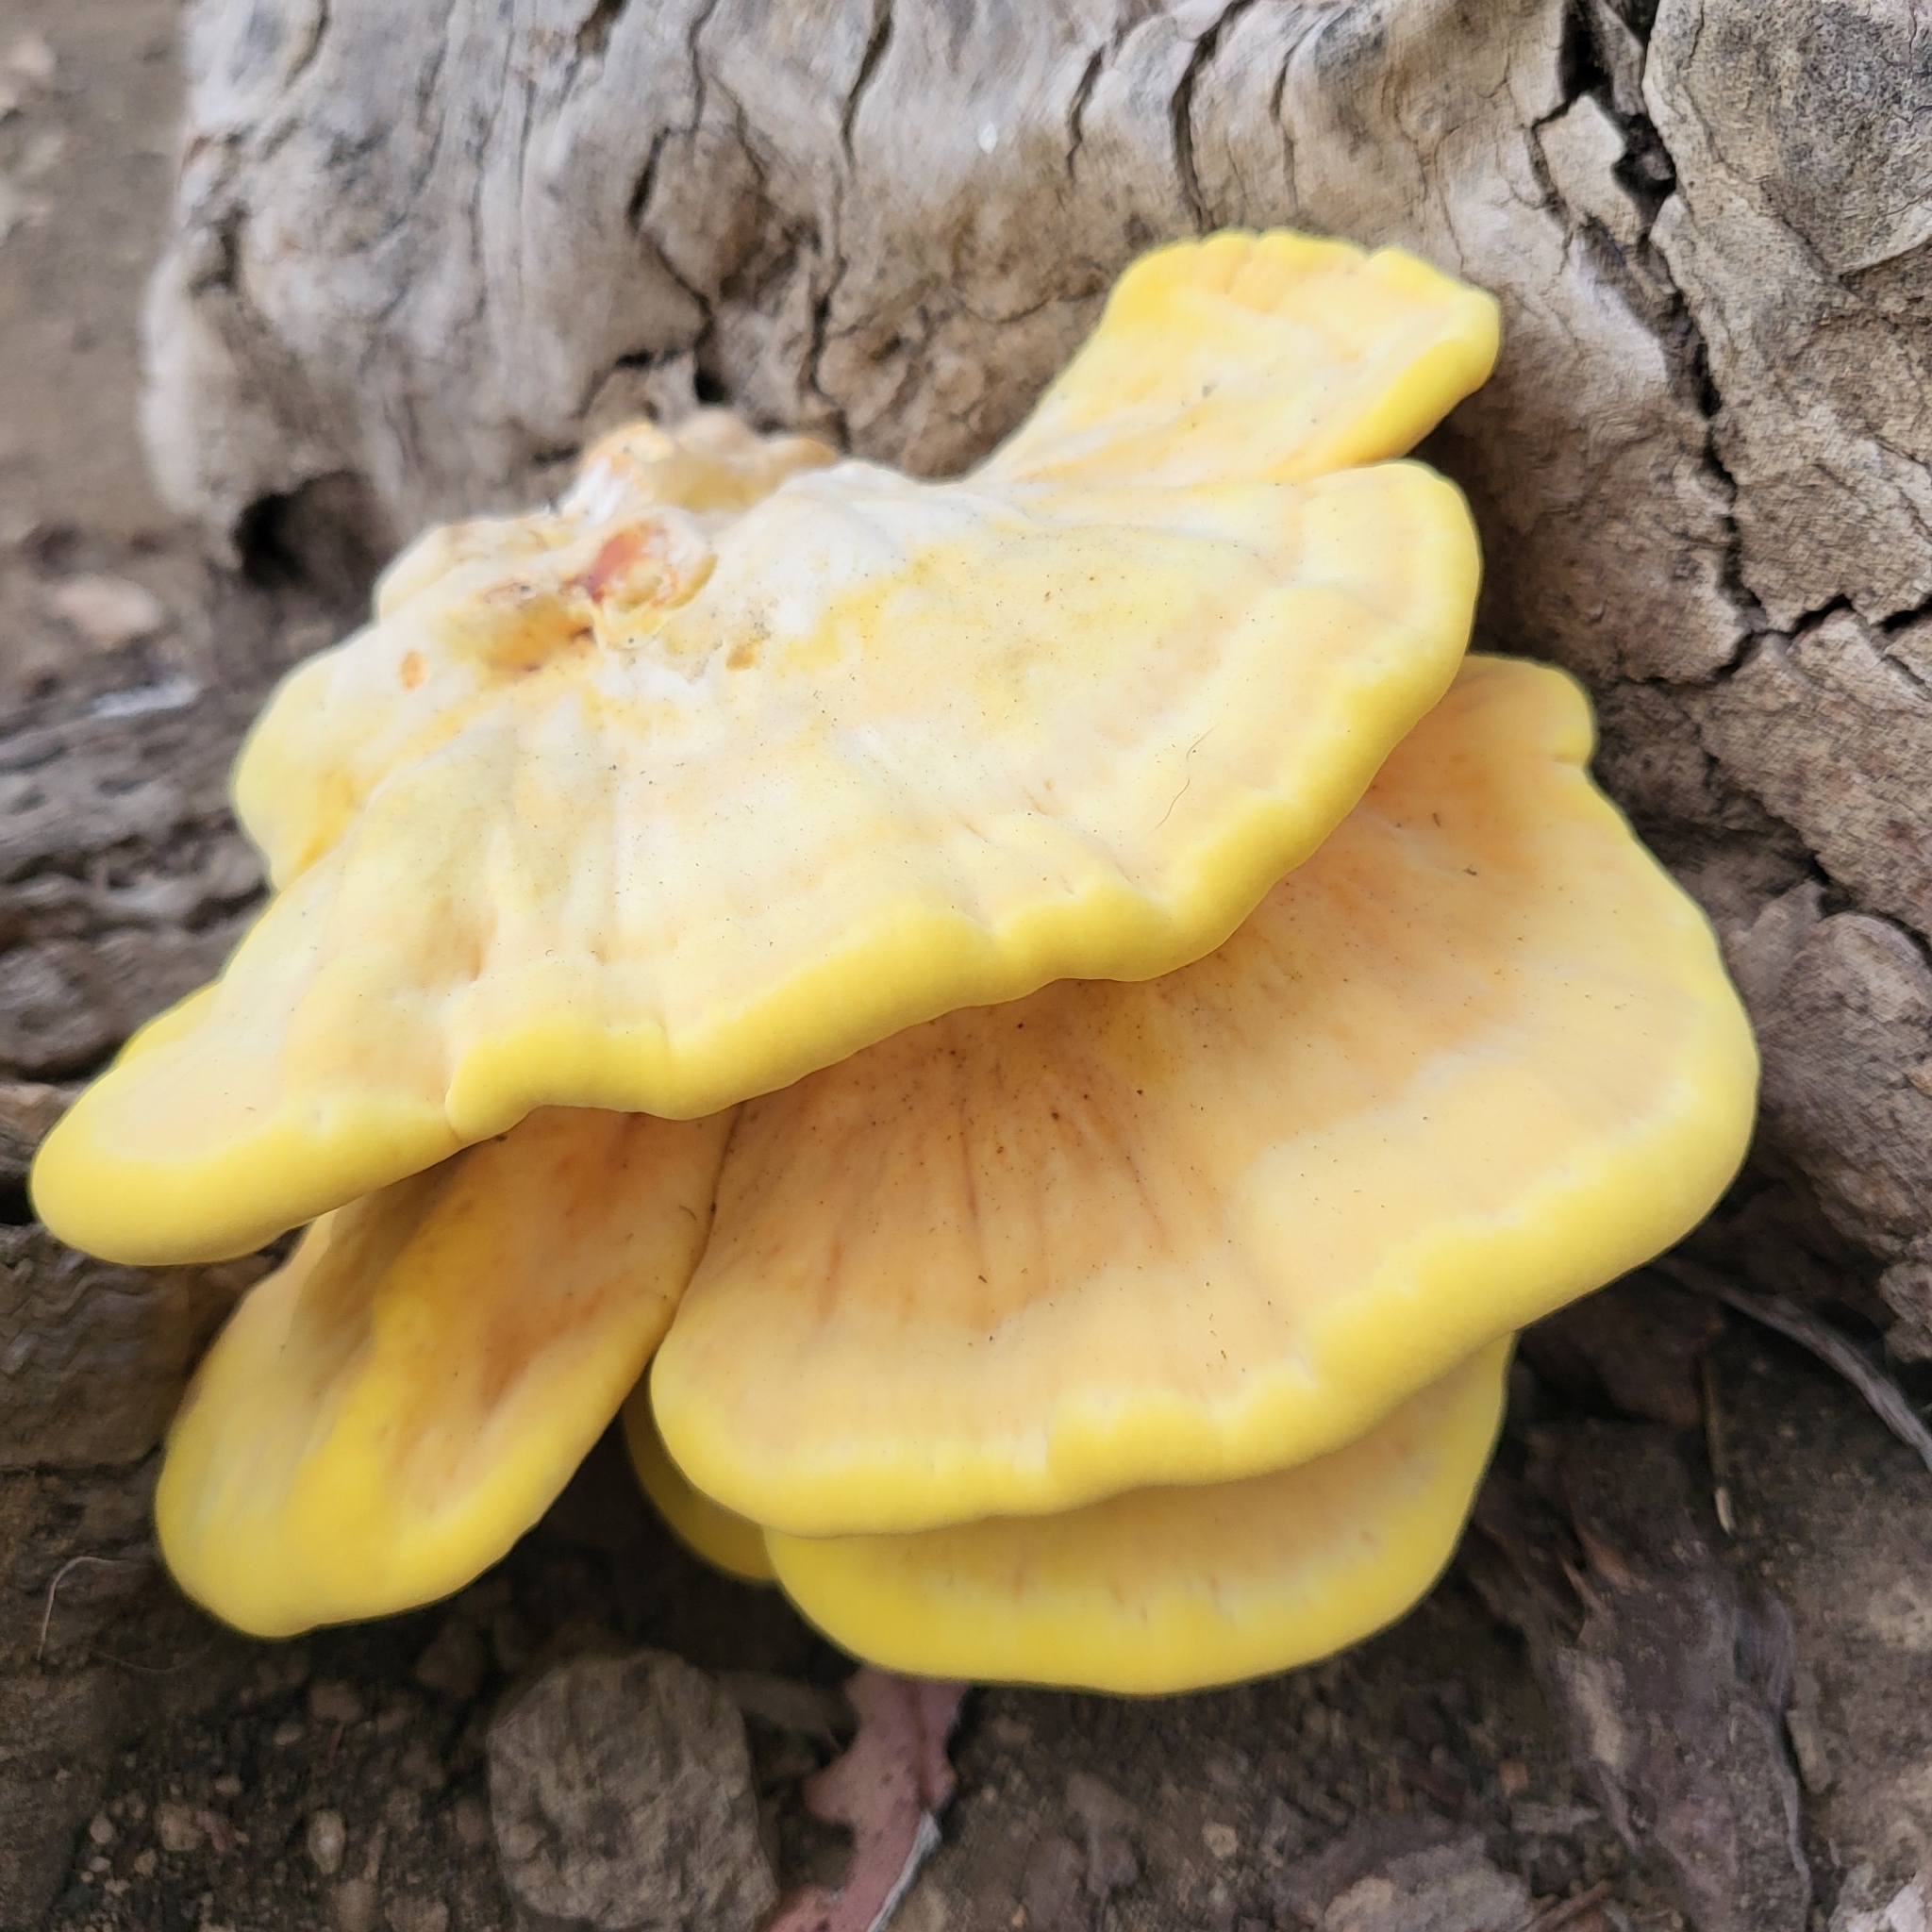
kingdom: Fungi
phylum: Basidiomycota
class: Agaricomycetes
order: Polyporales
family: Laetiporaceae
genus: Laetiporus
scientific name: Laetiporus gilbertsonii
